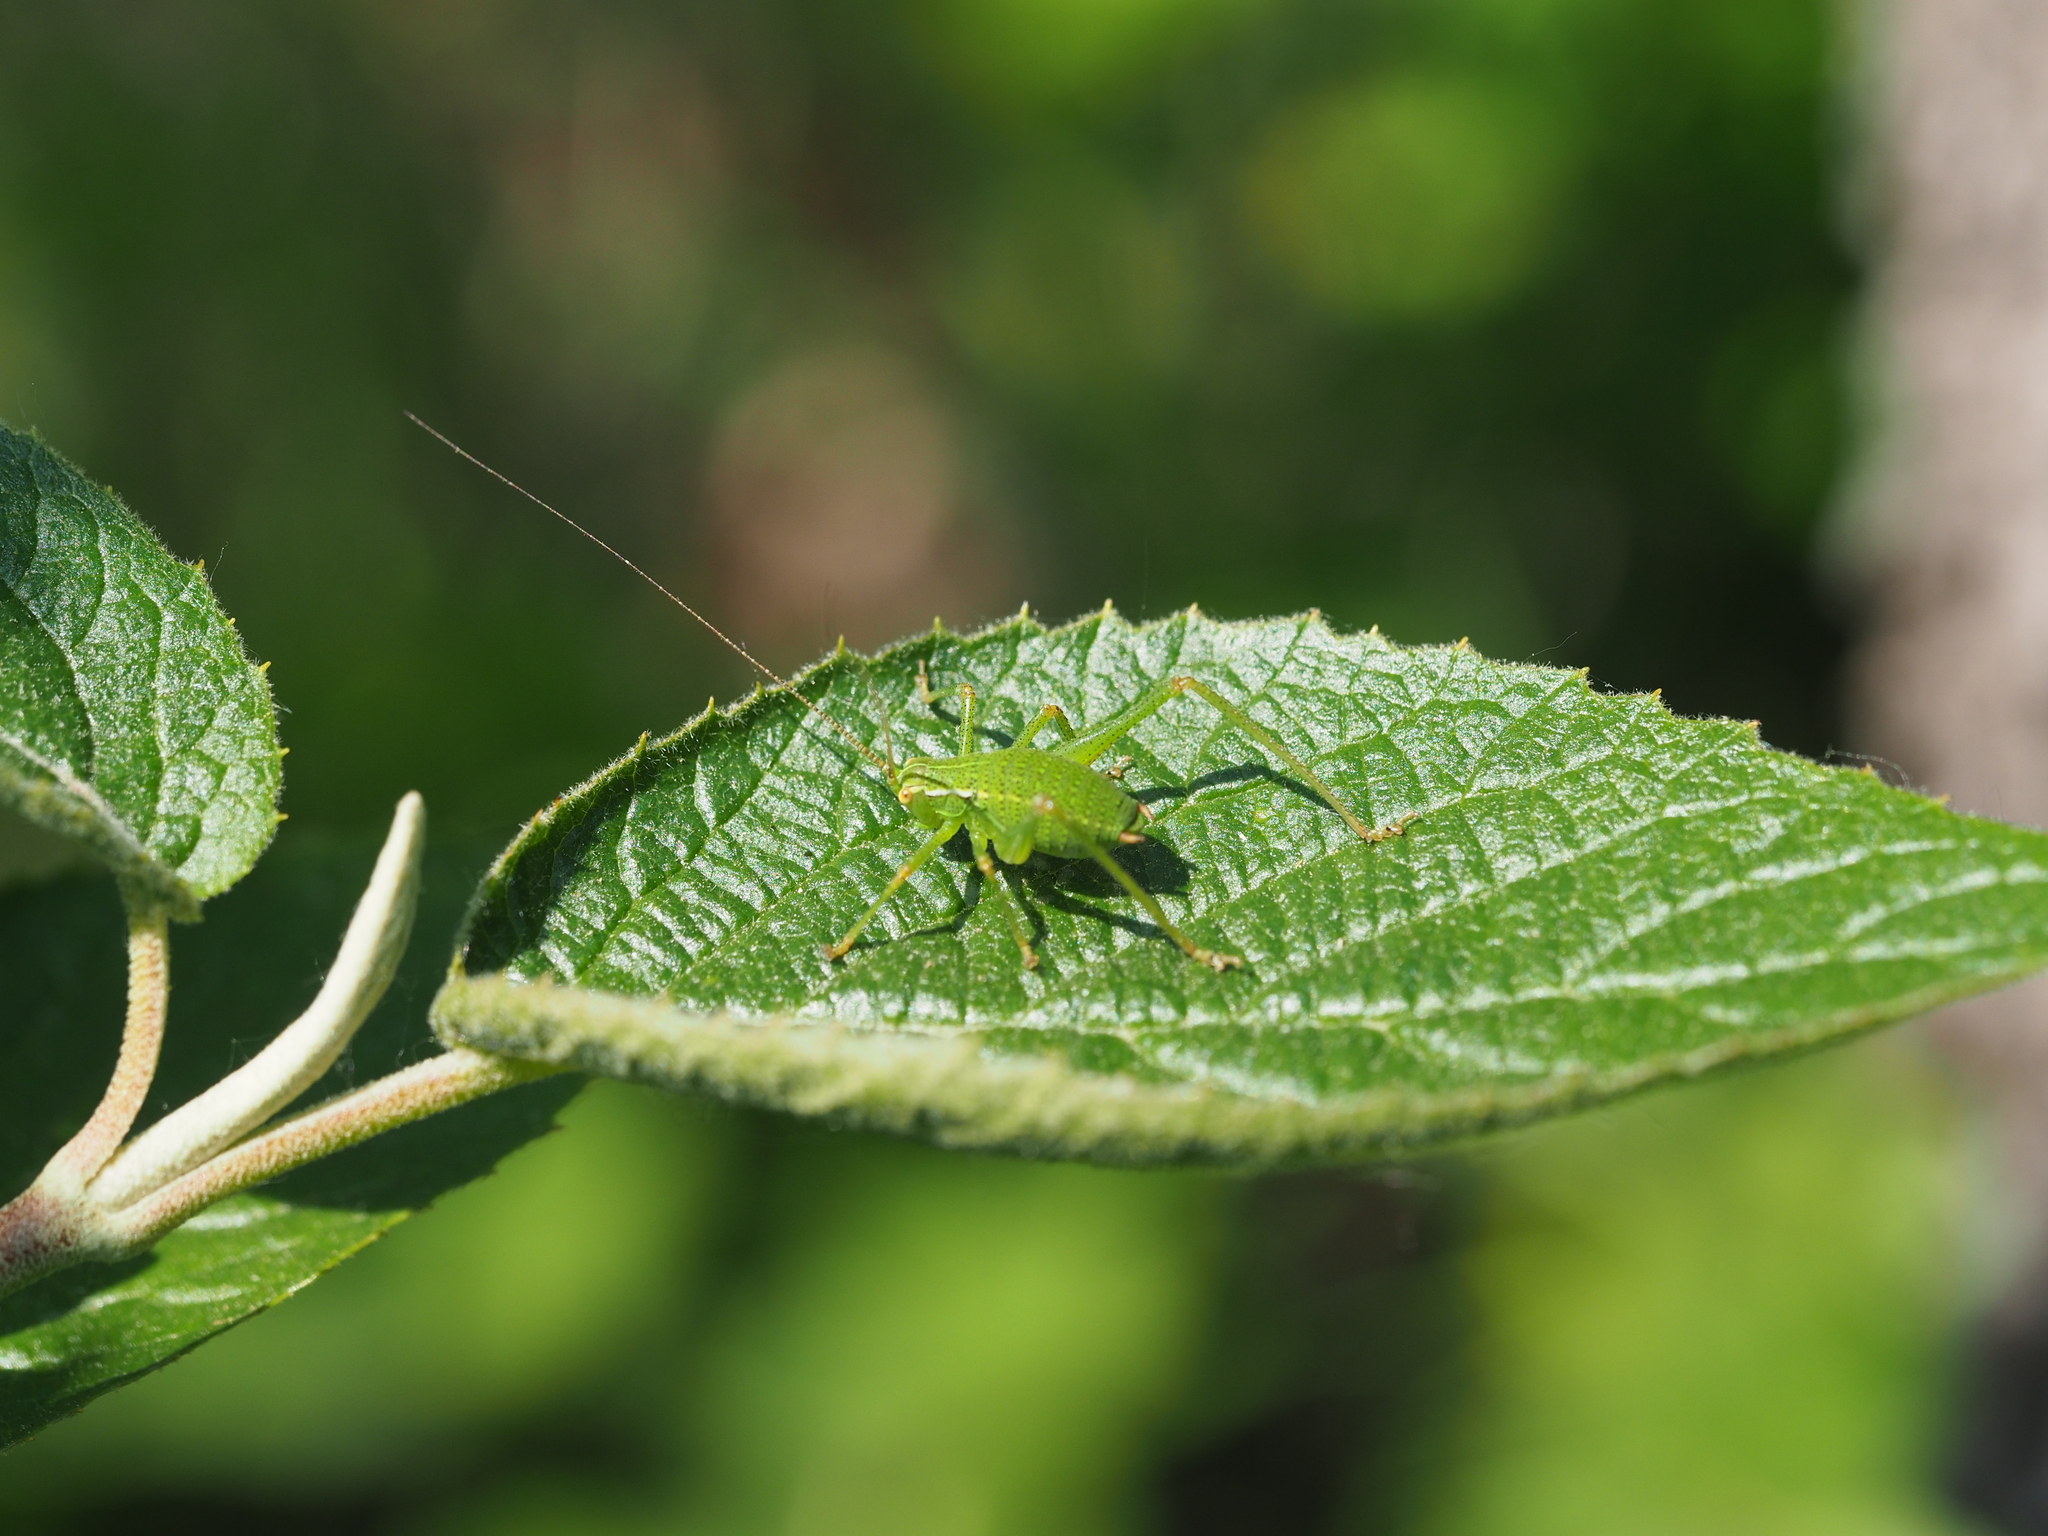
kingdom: Animalia
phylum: Arthropoda
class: Insecta
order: Orthoptera
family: Tettigoniidae
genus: Barbitistes
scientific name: Barbitistes serricauda
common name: Saw-tailed bush-cricket
